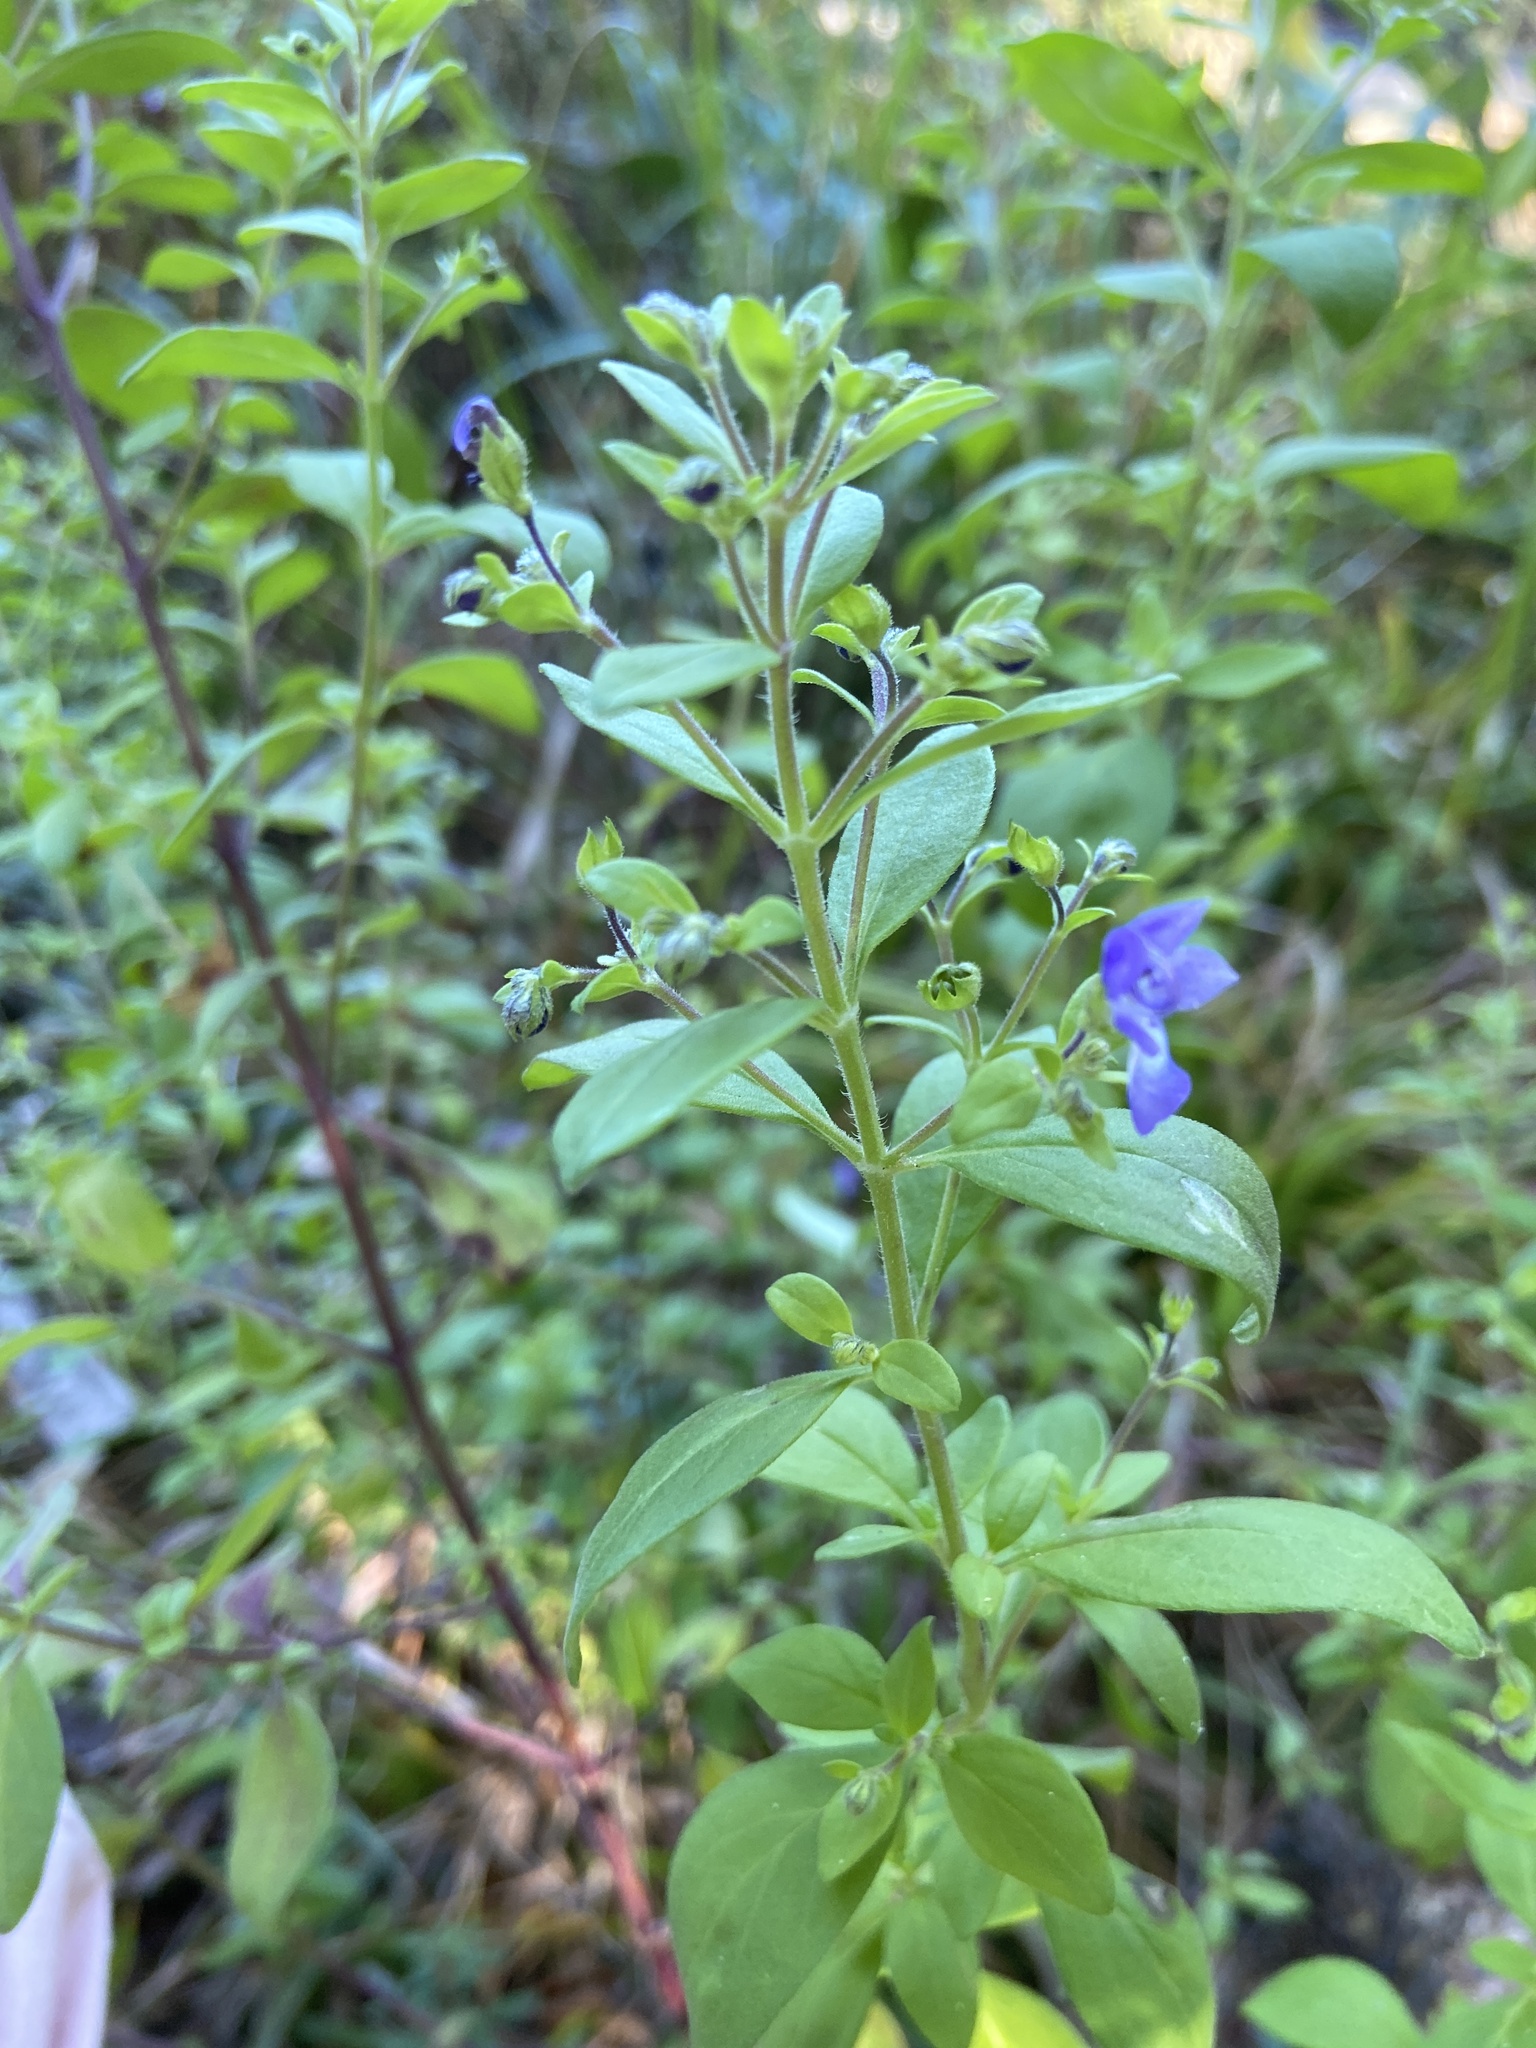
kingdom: Plantae
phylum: Tracheophyta
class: Magnoliopsida
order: Lamiales
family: Lamiaceae
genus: Trichostema
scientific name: Trichostema dichotomum
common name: Bastard pennyroyal
